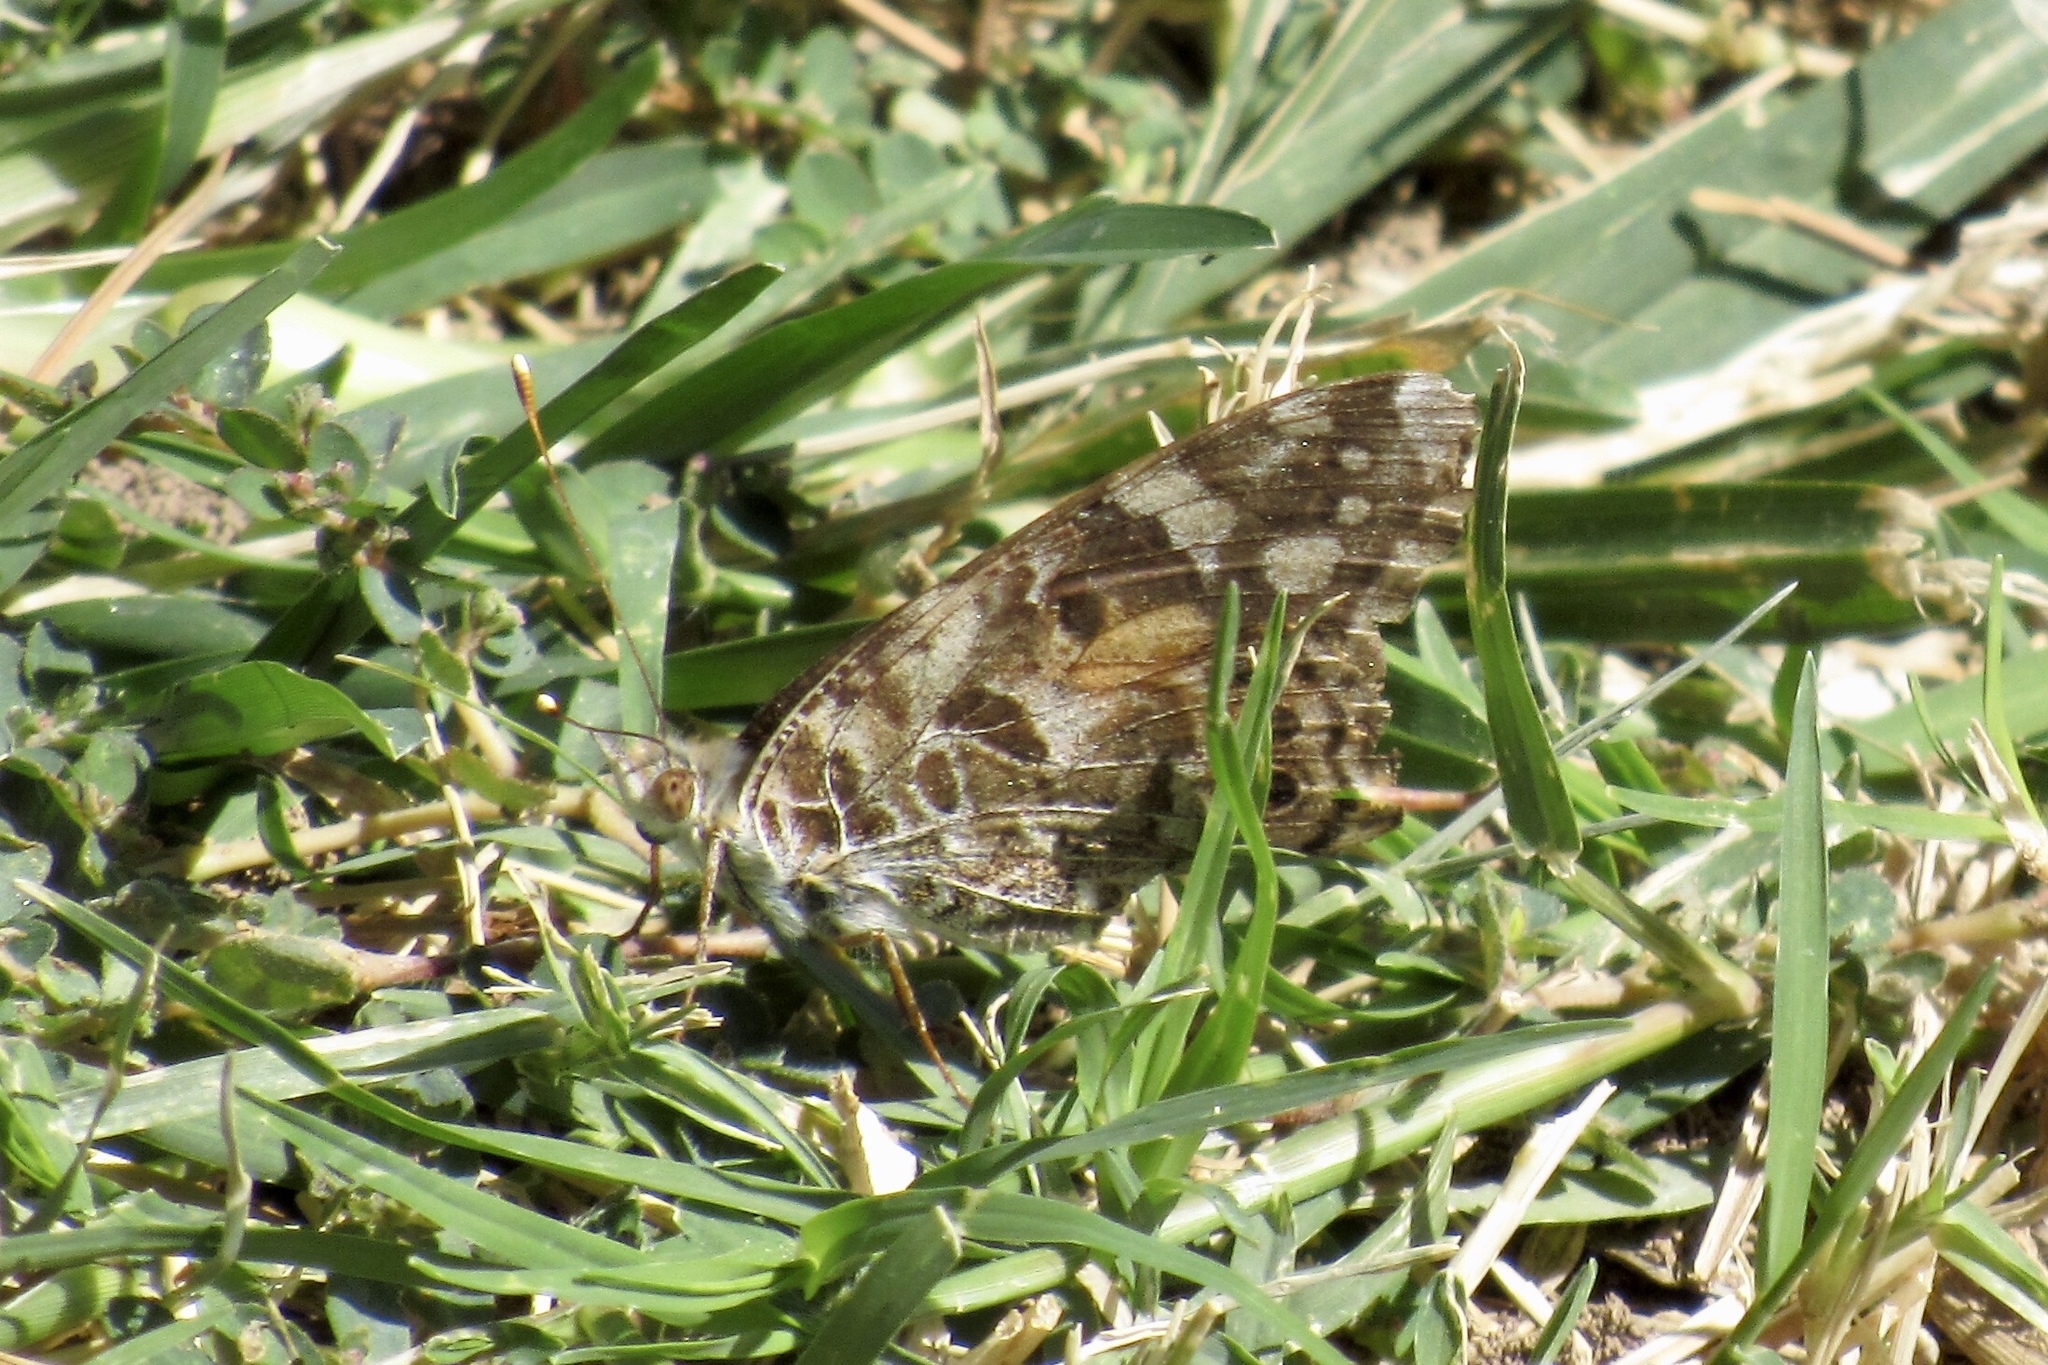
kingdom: Animalia
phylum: Arthropoda
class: Insecta
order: Lepidoptera
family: Nymphalidae
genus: Vanessa
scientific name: Vanessa cardui
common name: Painted lady
